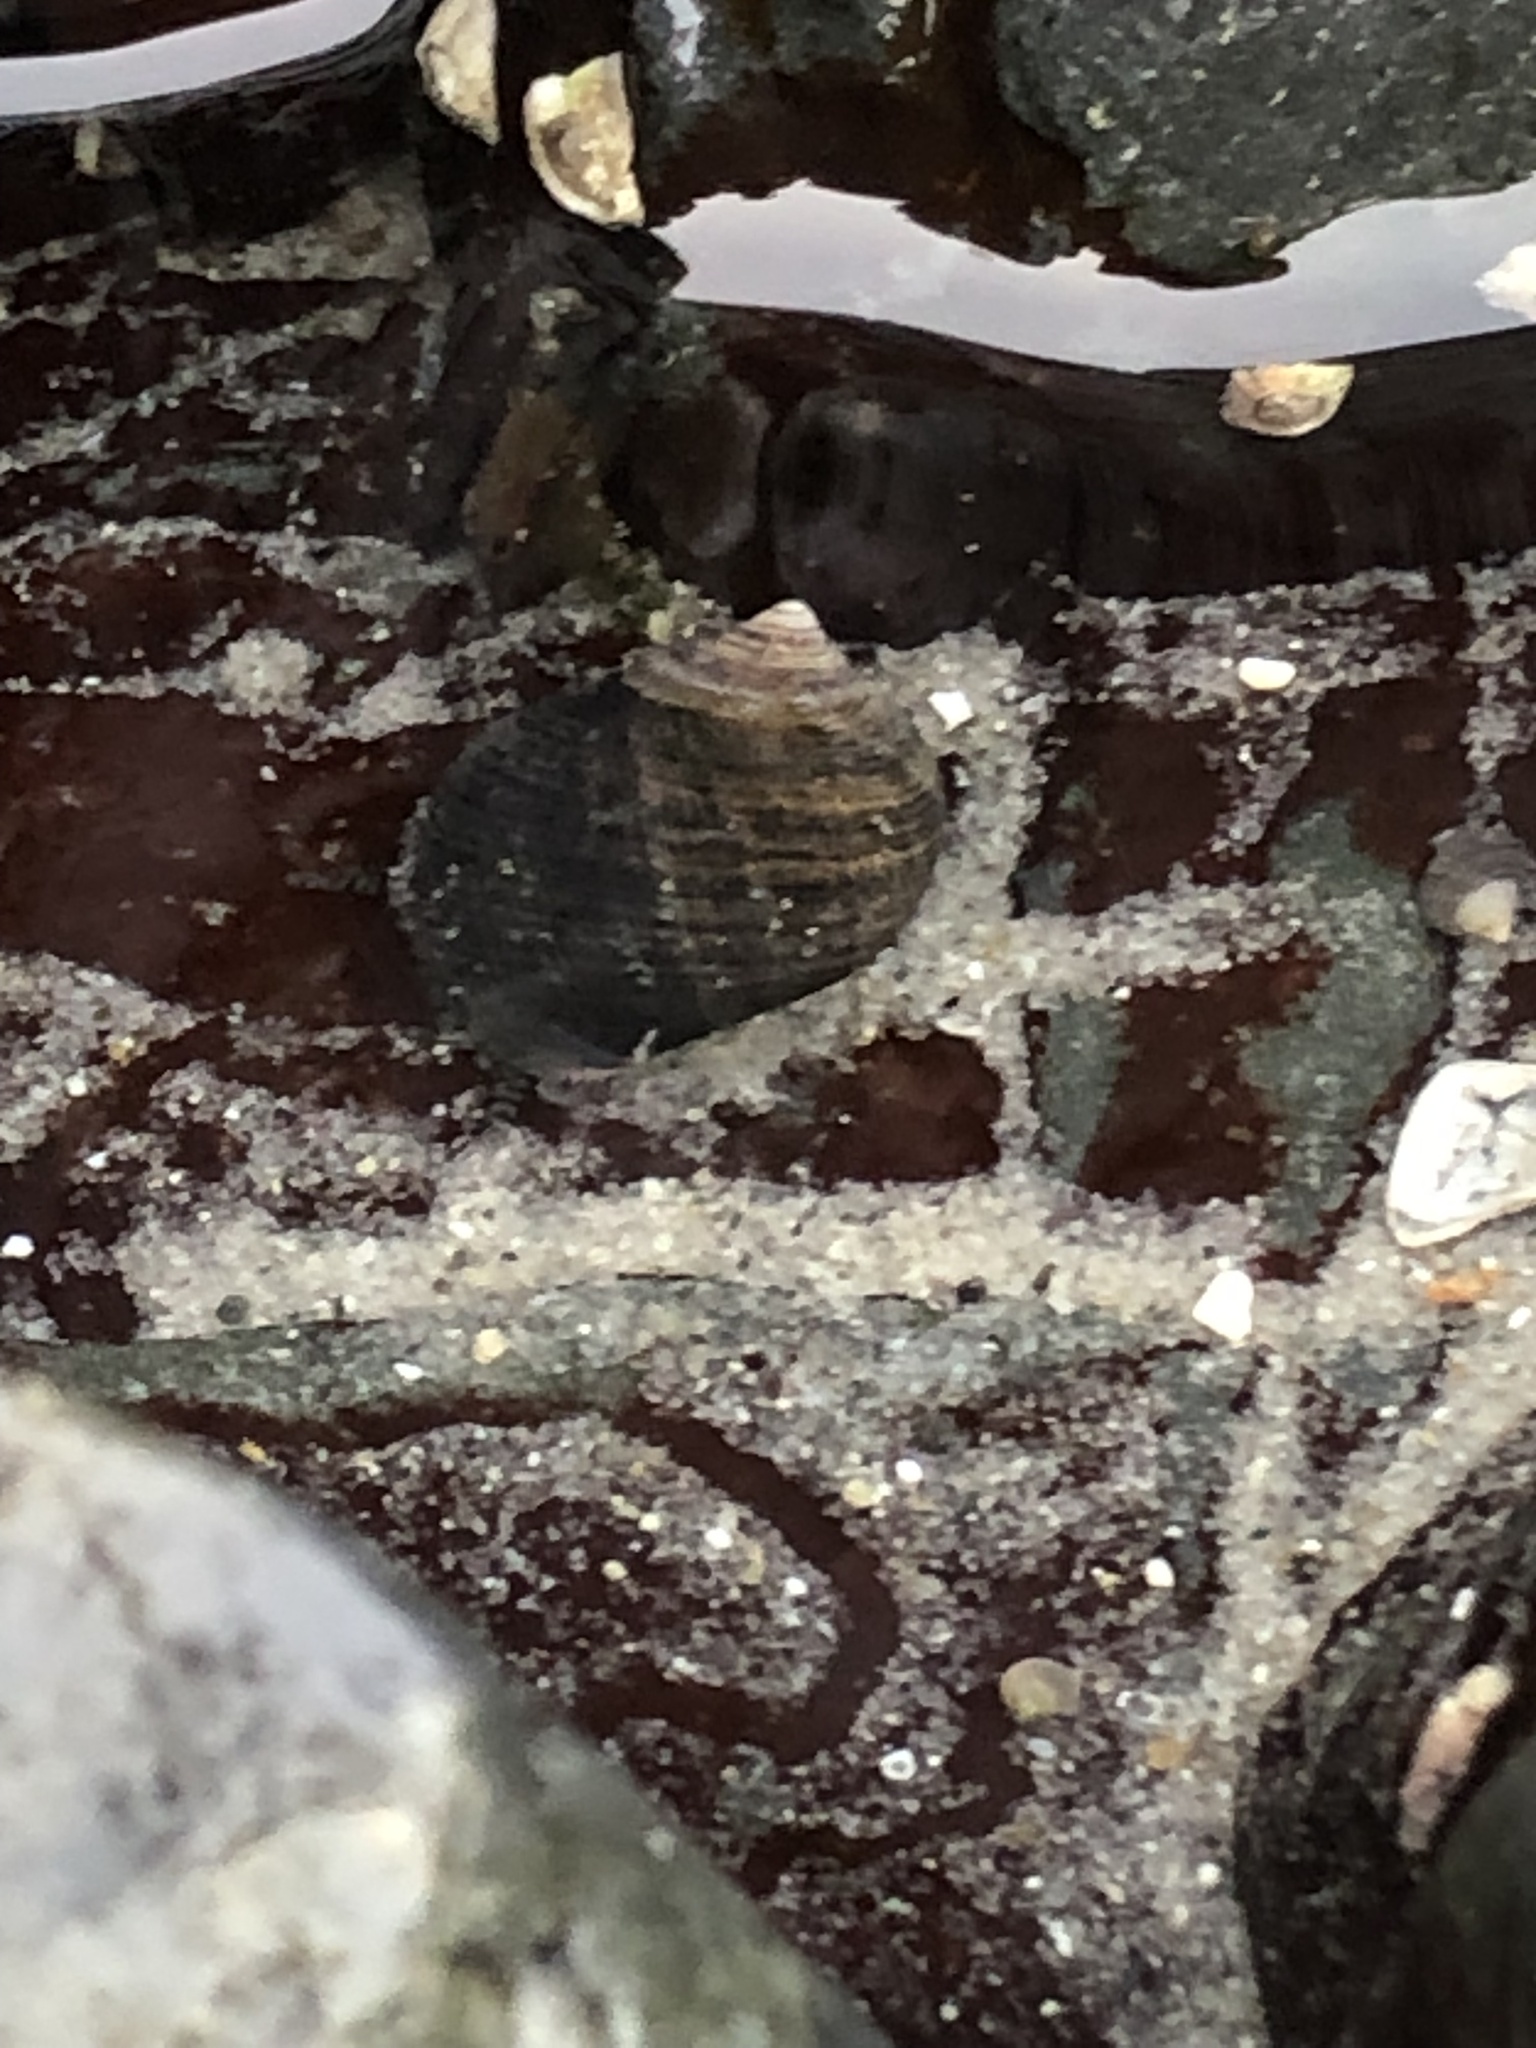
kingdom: Animalia
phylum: Mollusca
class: Gastropoda
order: Littorinimorpha
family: Littorinidae
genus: Littorina
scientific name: Littorina littorea
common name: Common periwinkle
